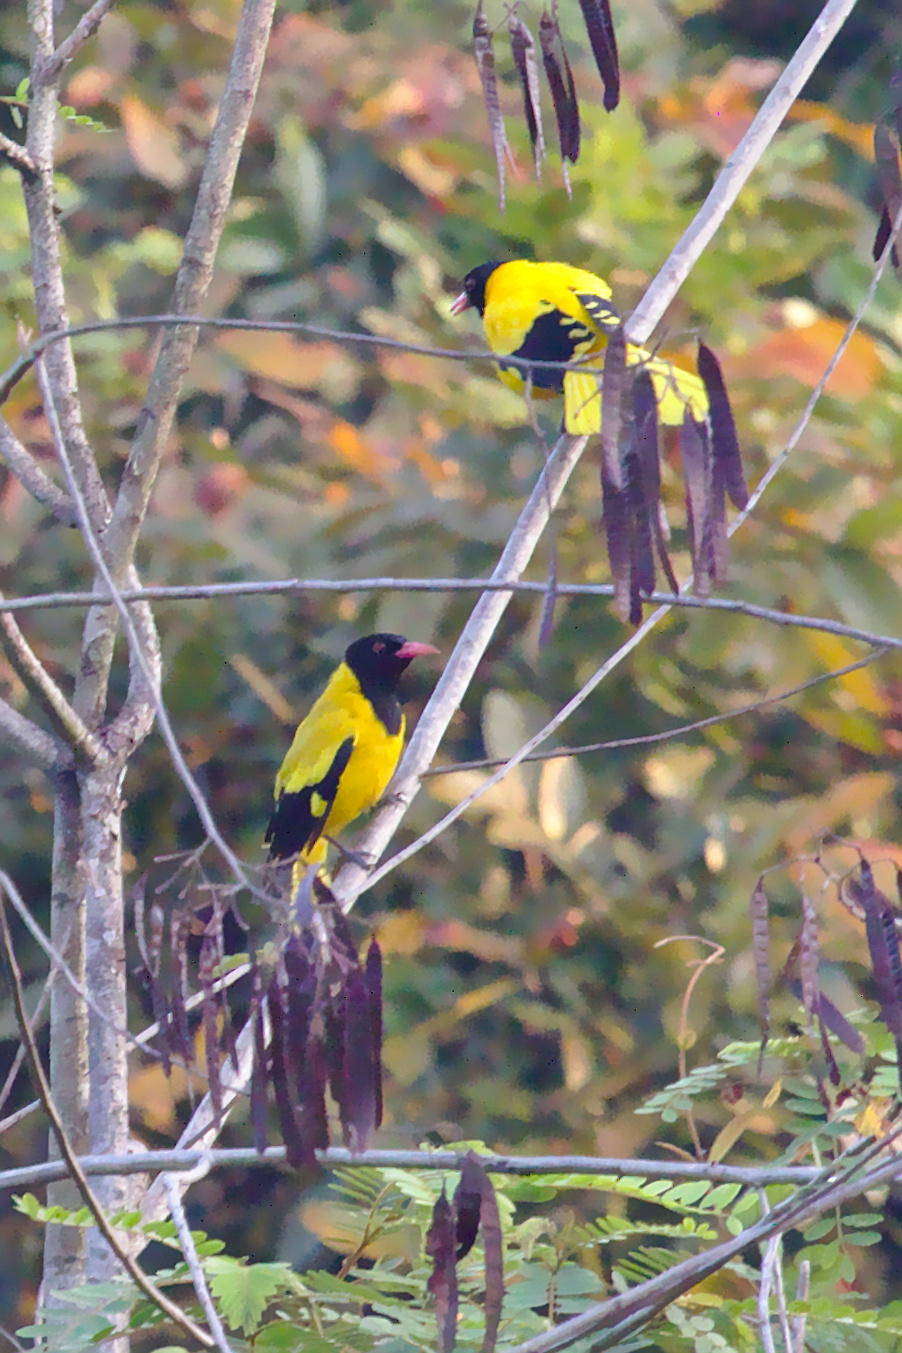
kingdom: Animalia
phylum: Chordata
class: Aves
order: Passeriformes
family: Oriolidae
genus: Oriolus
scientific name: Oriolus xanthornus
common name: Black-hooded oriole
